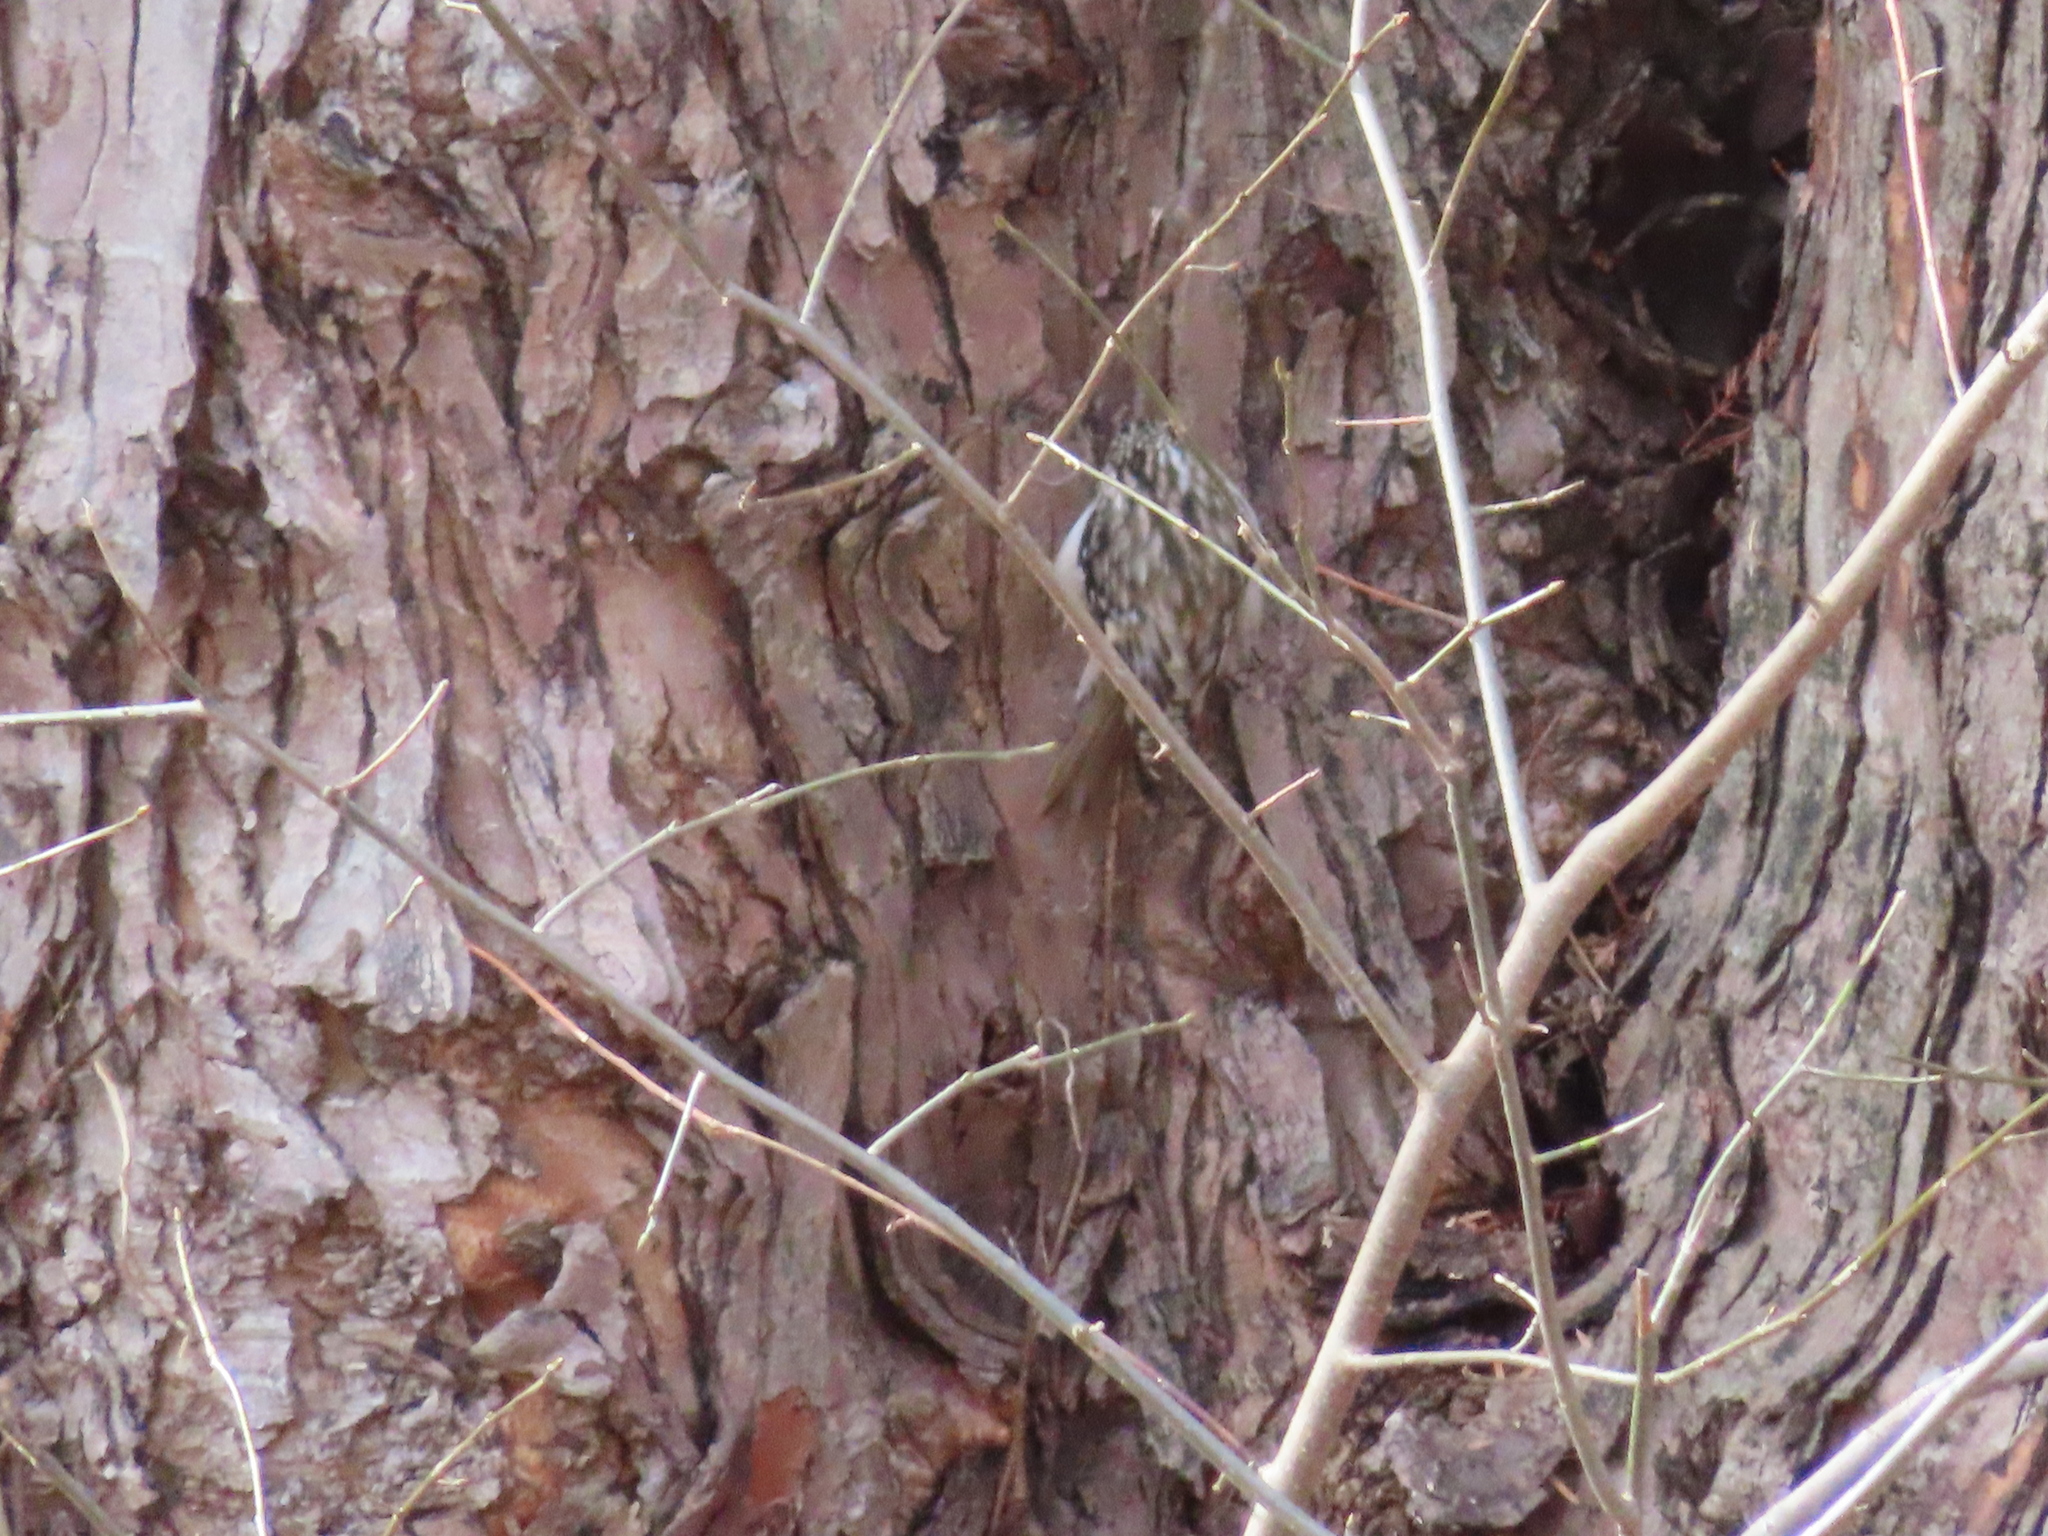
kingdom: Animalia
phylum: Chordata
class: Aves
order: Passeriformes
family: Certhiidae
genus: Certhia
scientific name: Certhia americana
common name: Brown creeper
